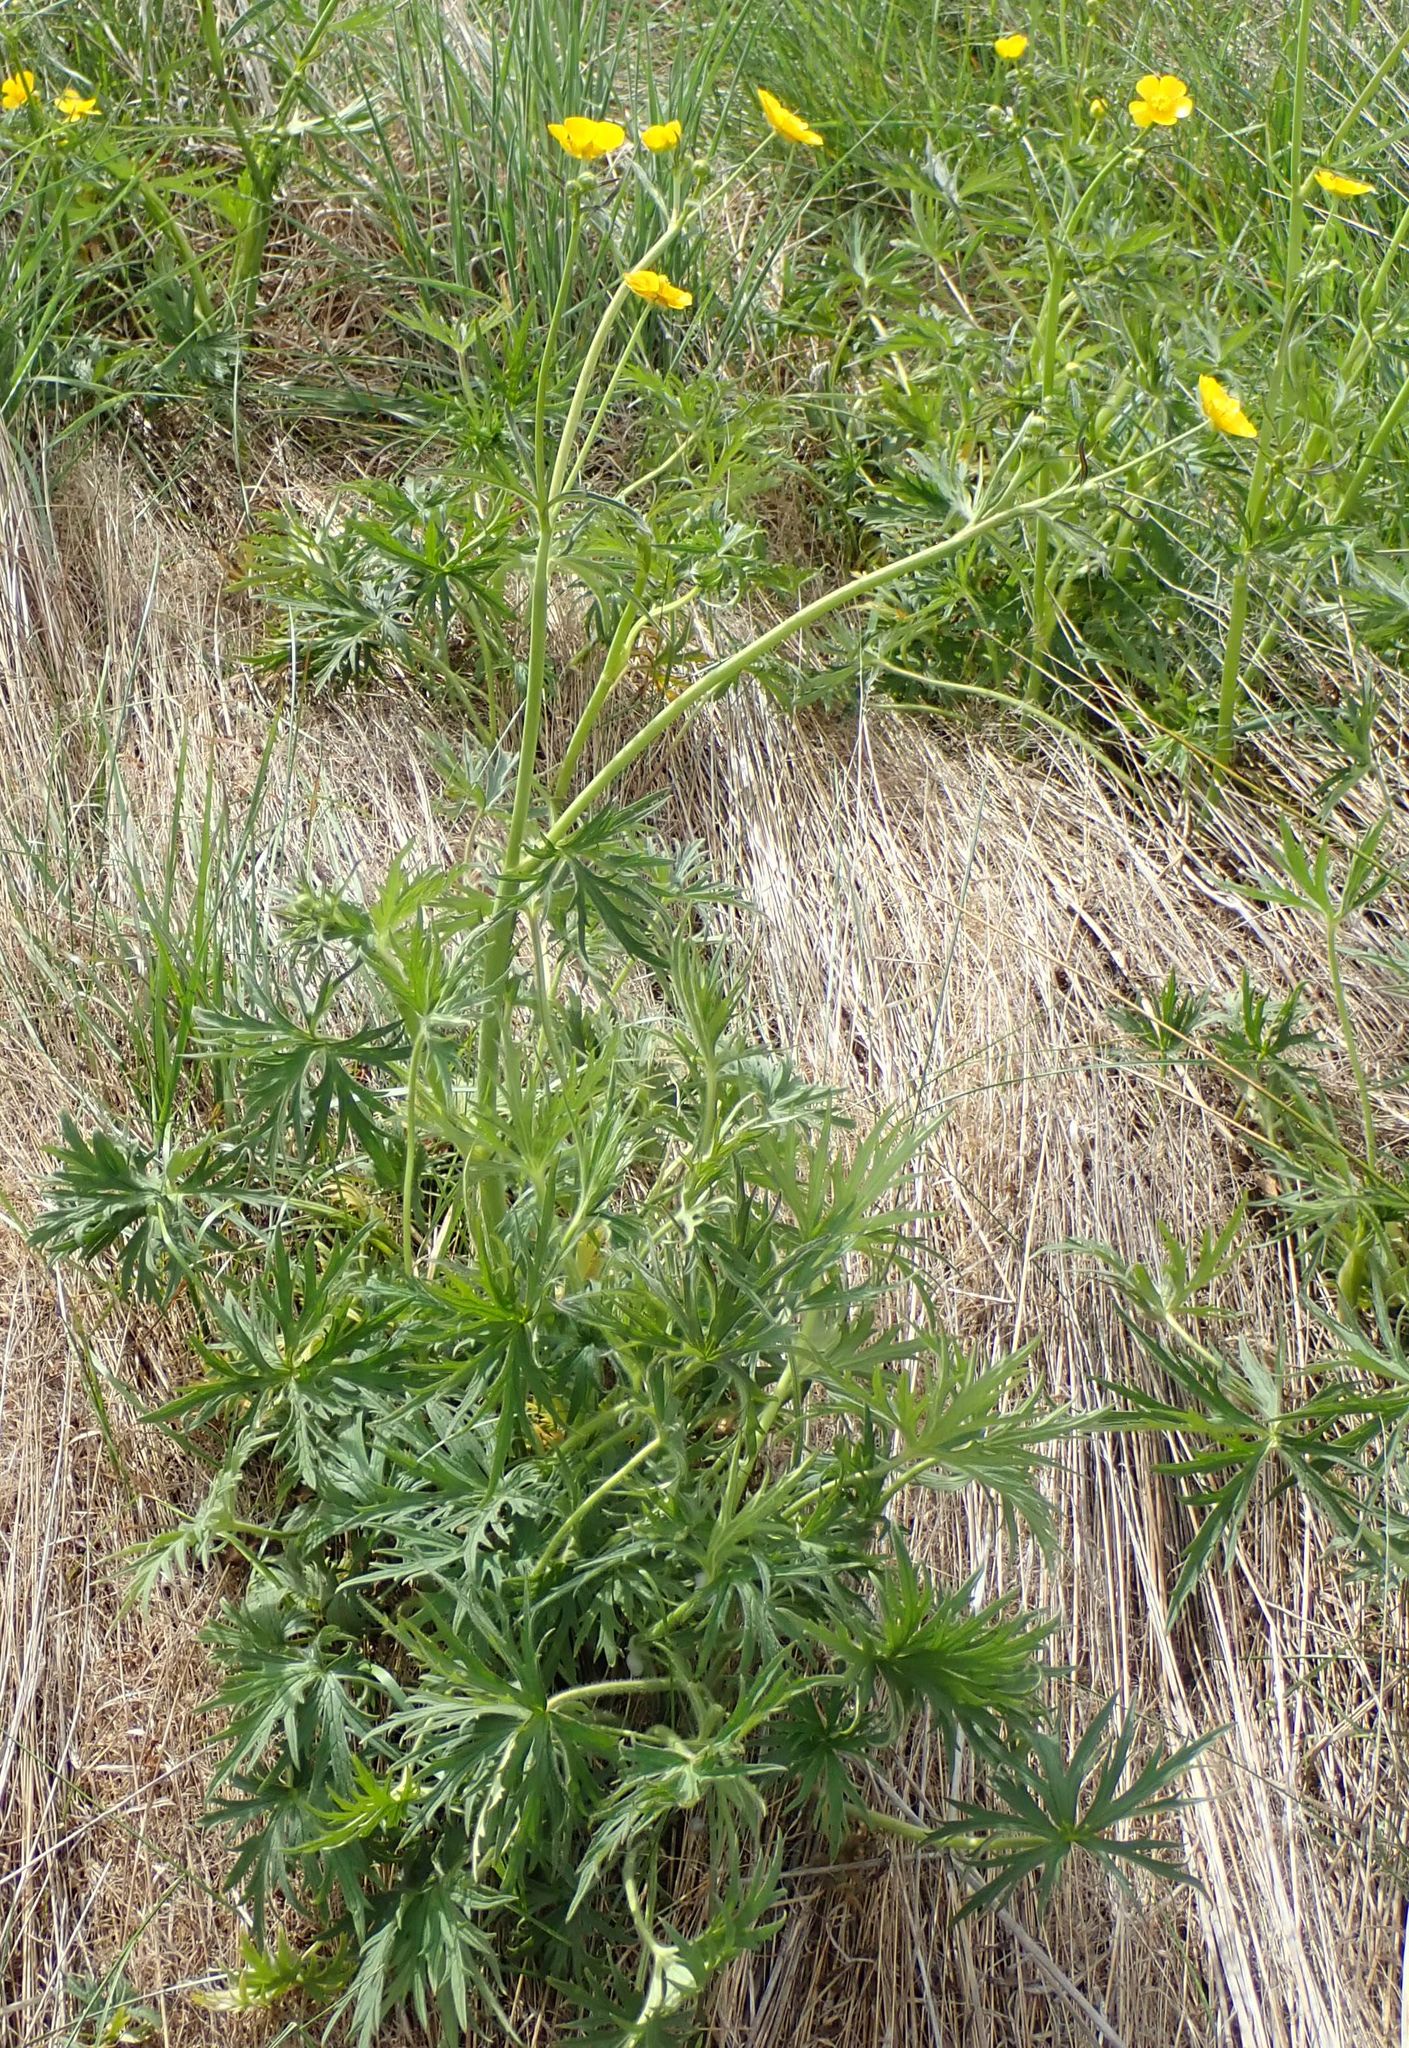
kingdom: Plantae
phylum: Tracheophyta
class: Magnoliopsida
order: Ranunculales
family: Ranunculaceae
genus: Ranunculus
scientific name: Ranunculus acris
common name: Meadow buttercup
